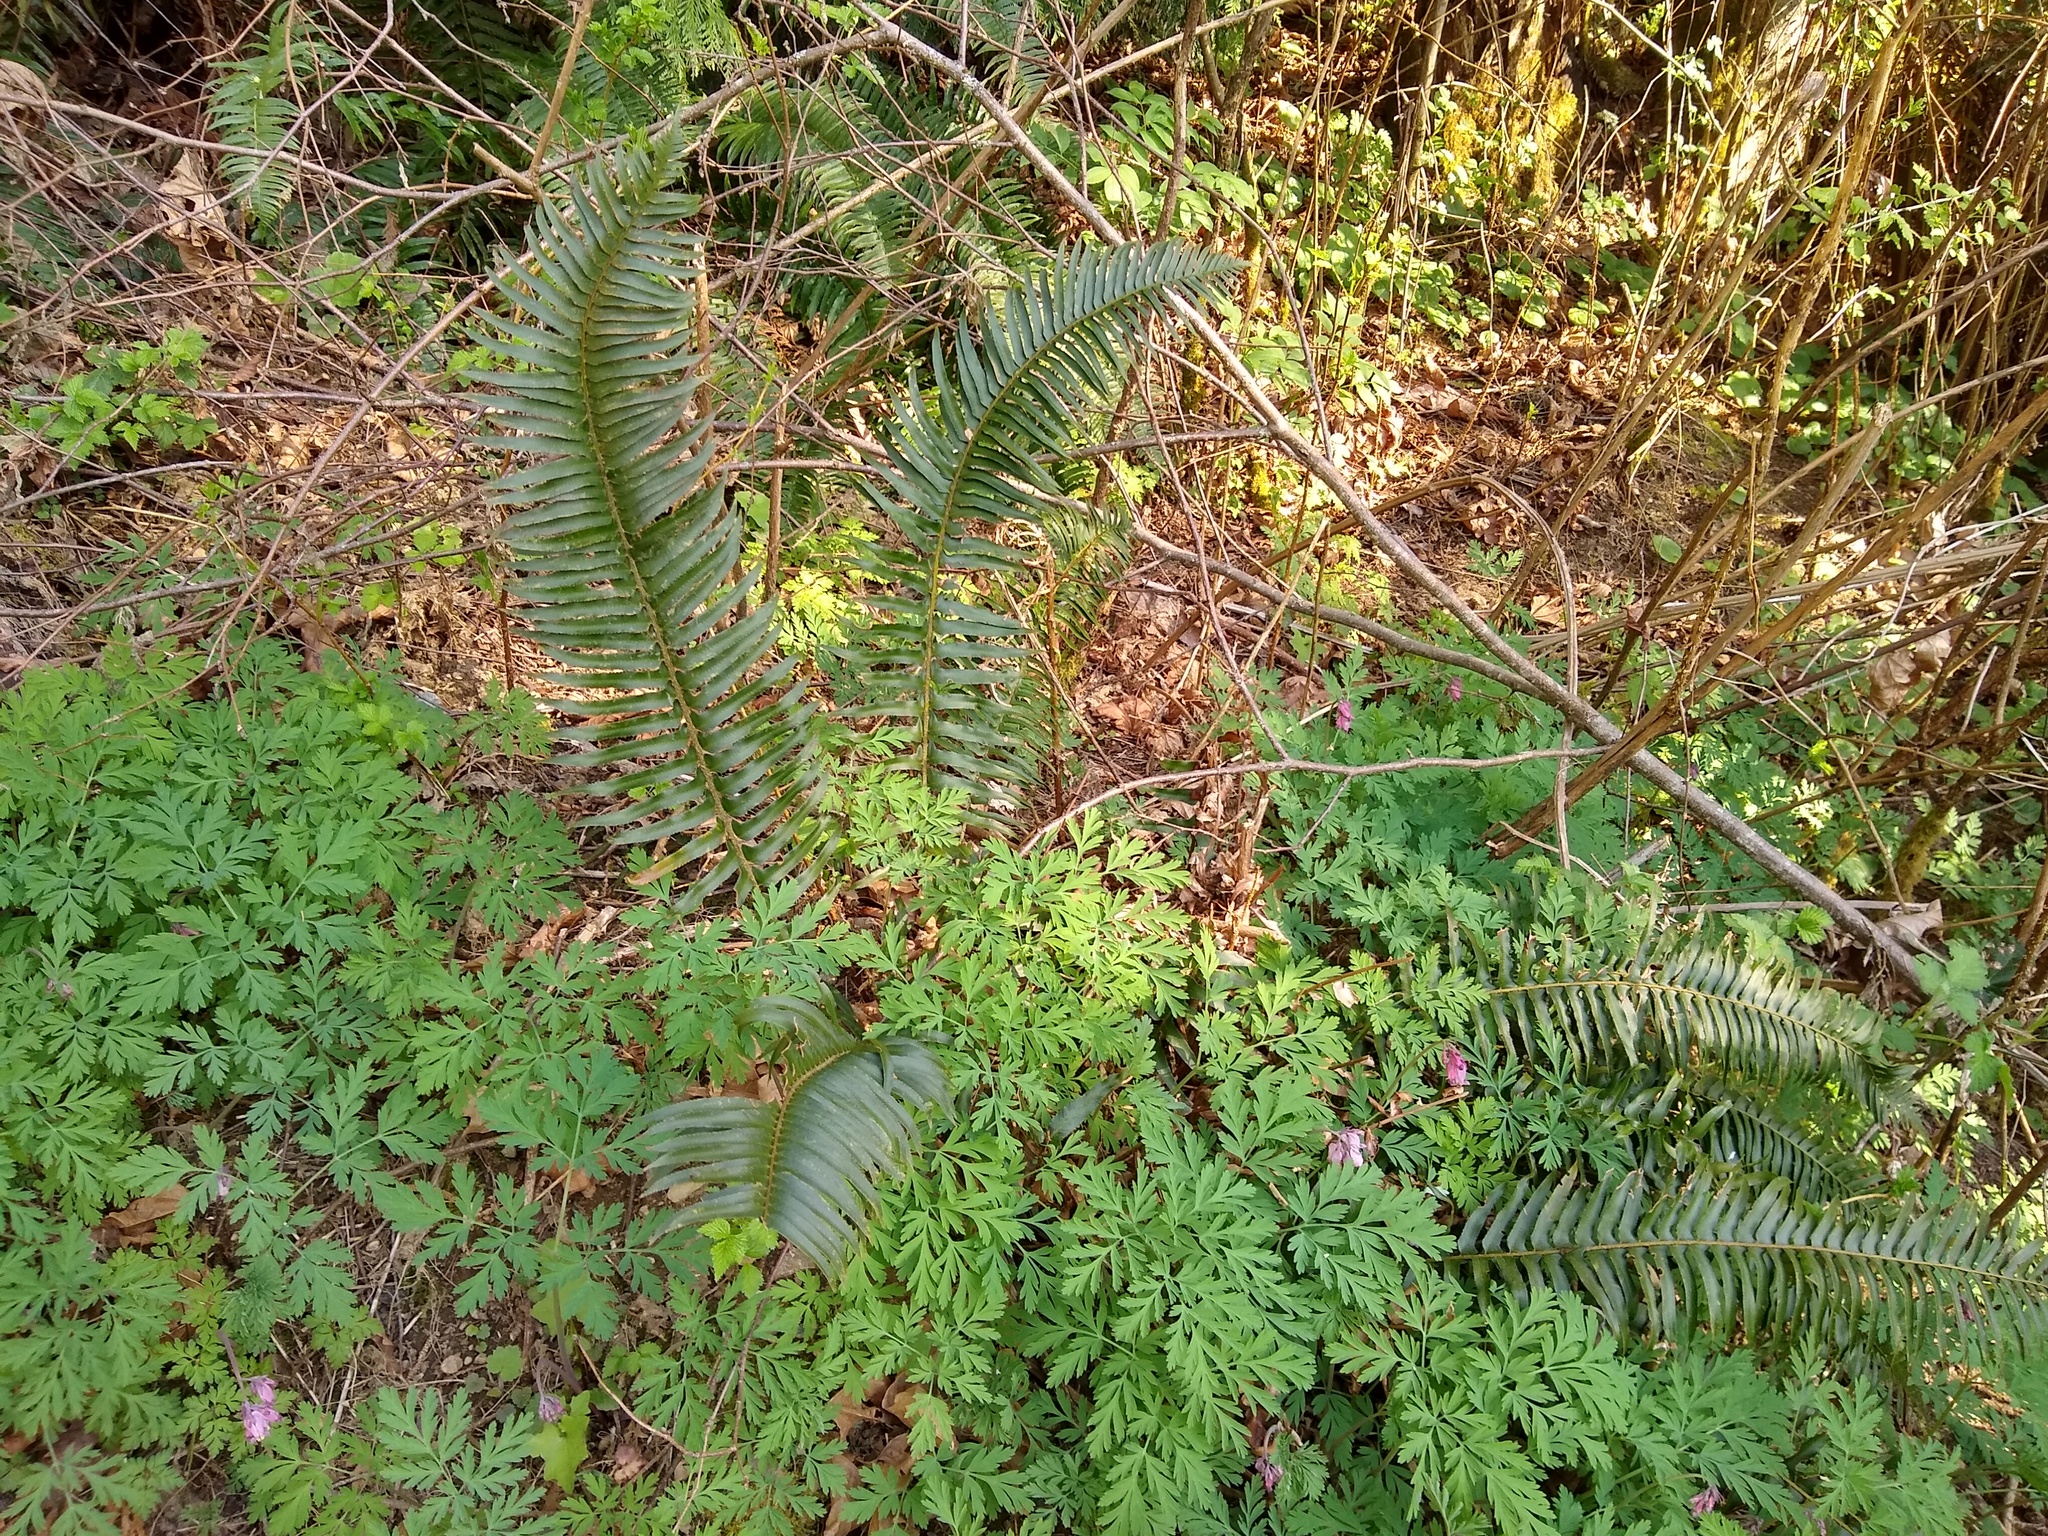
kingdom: Plantae
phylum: Tracheophyta
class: Polypodiopsida
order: Polypodiales
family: Dryopteridaceae
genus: Polystichum
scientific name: Polystichum munitum
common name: Western sword-fern
